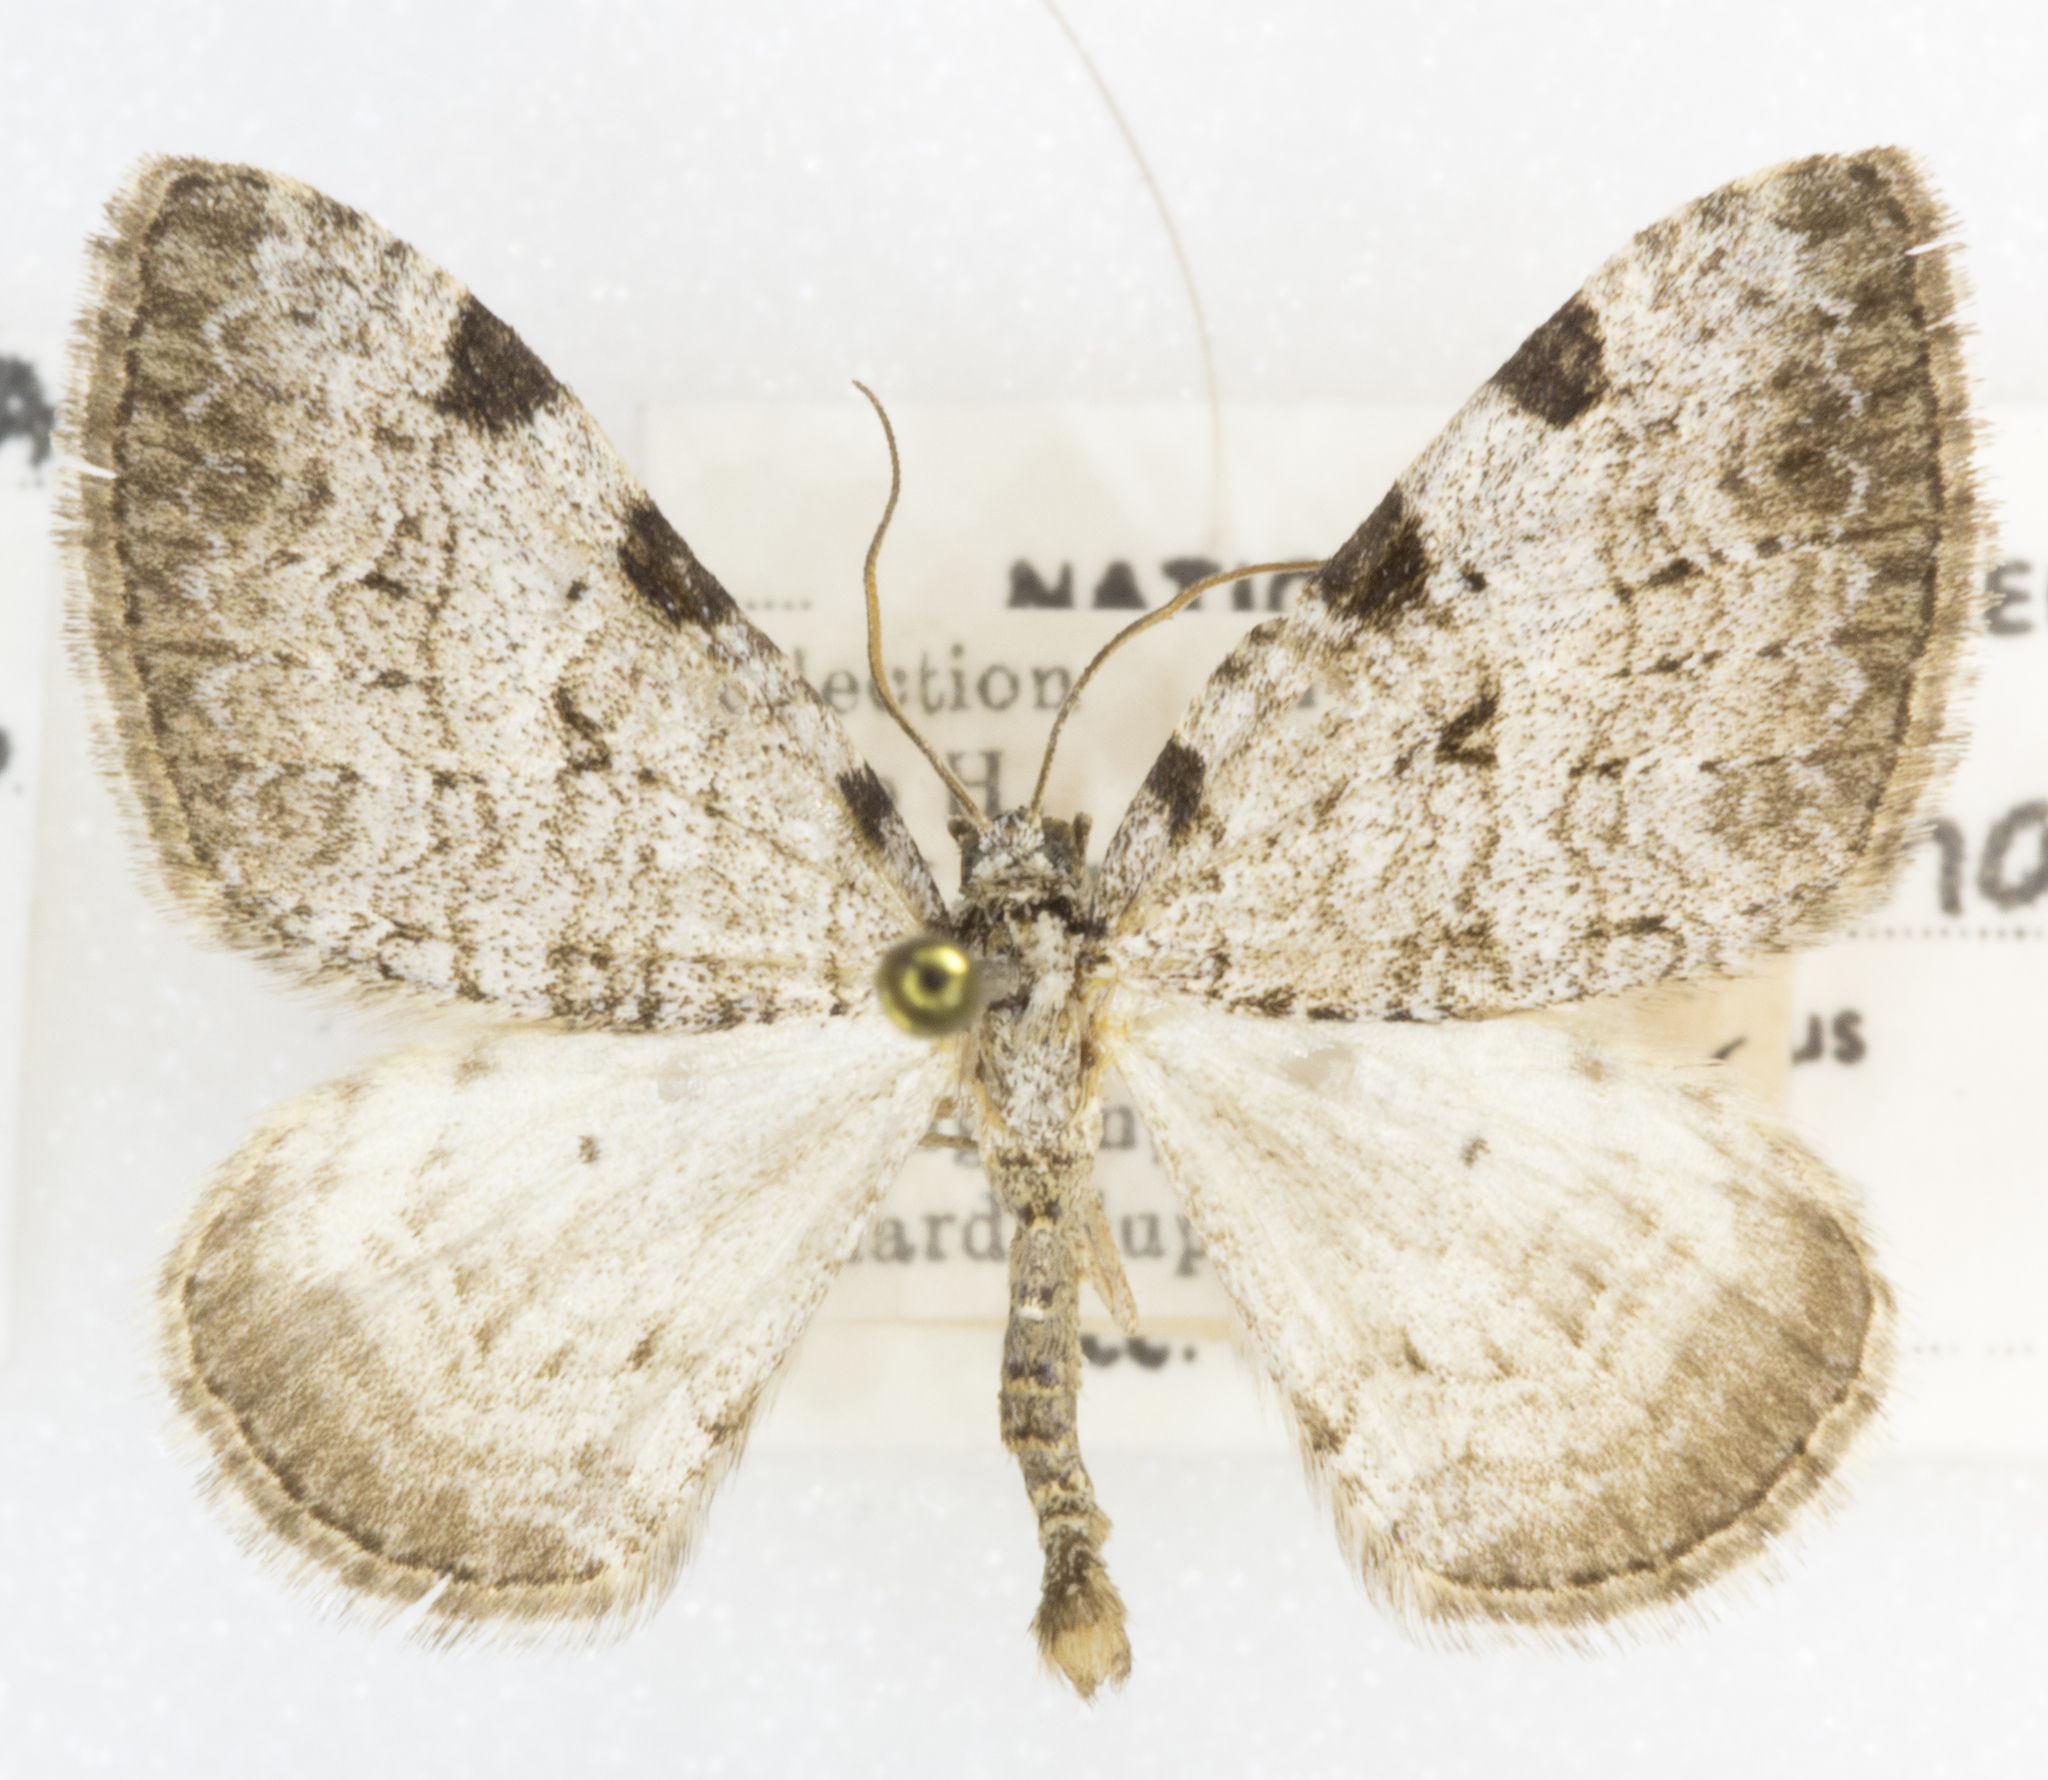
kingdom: Animalia
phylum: Arthropoda
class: Insecta
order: Lepidoptera
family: Geometridae
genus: Perizoma
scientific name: Perizoma costiguttata
